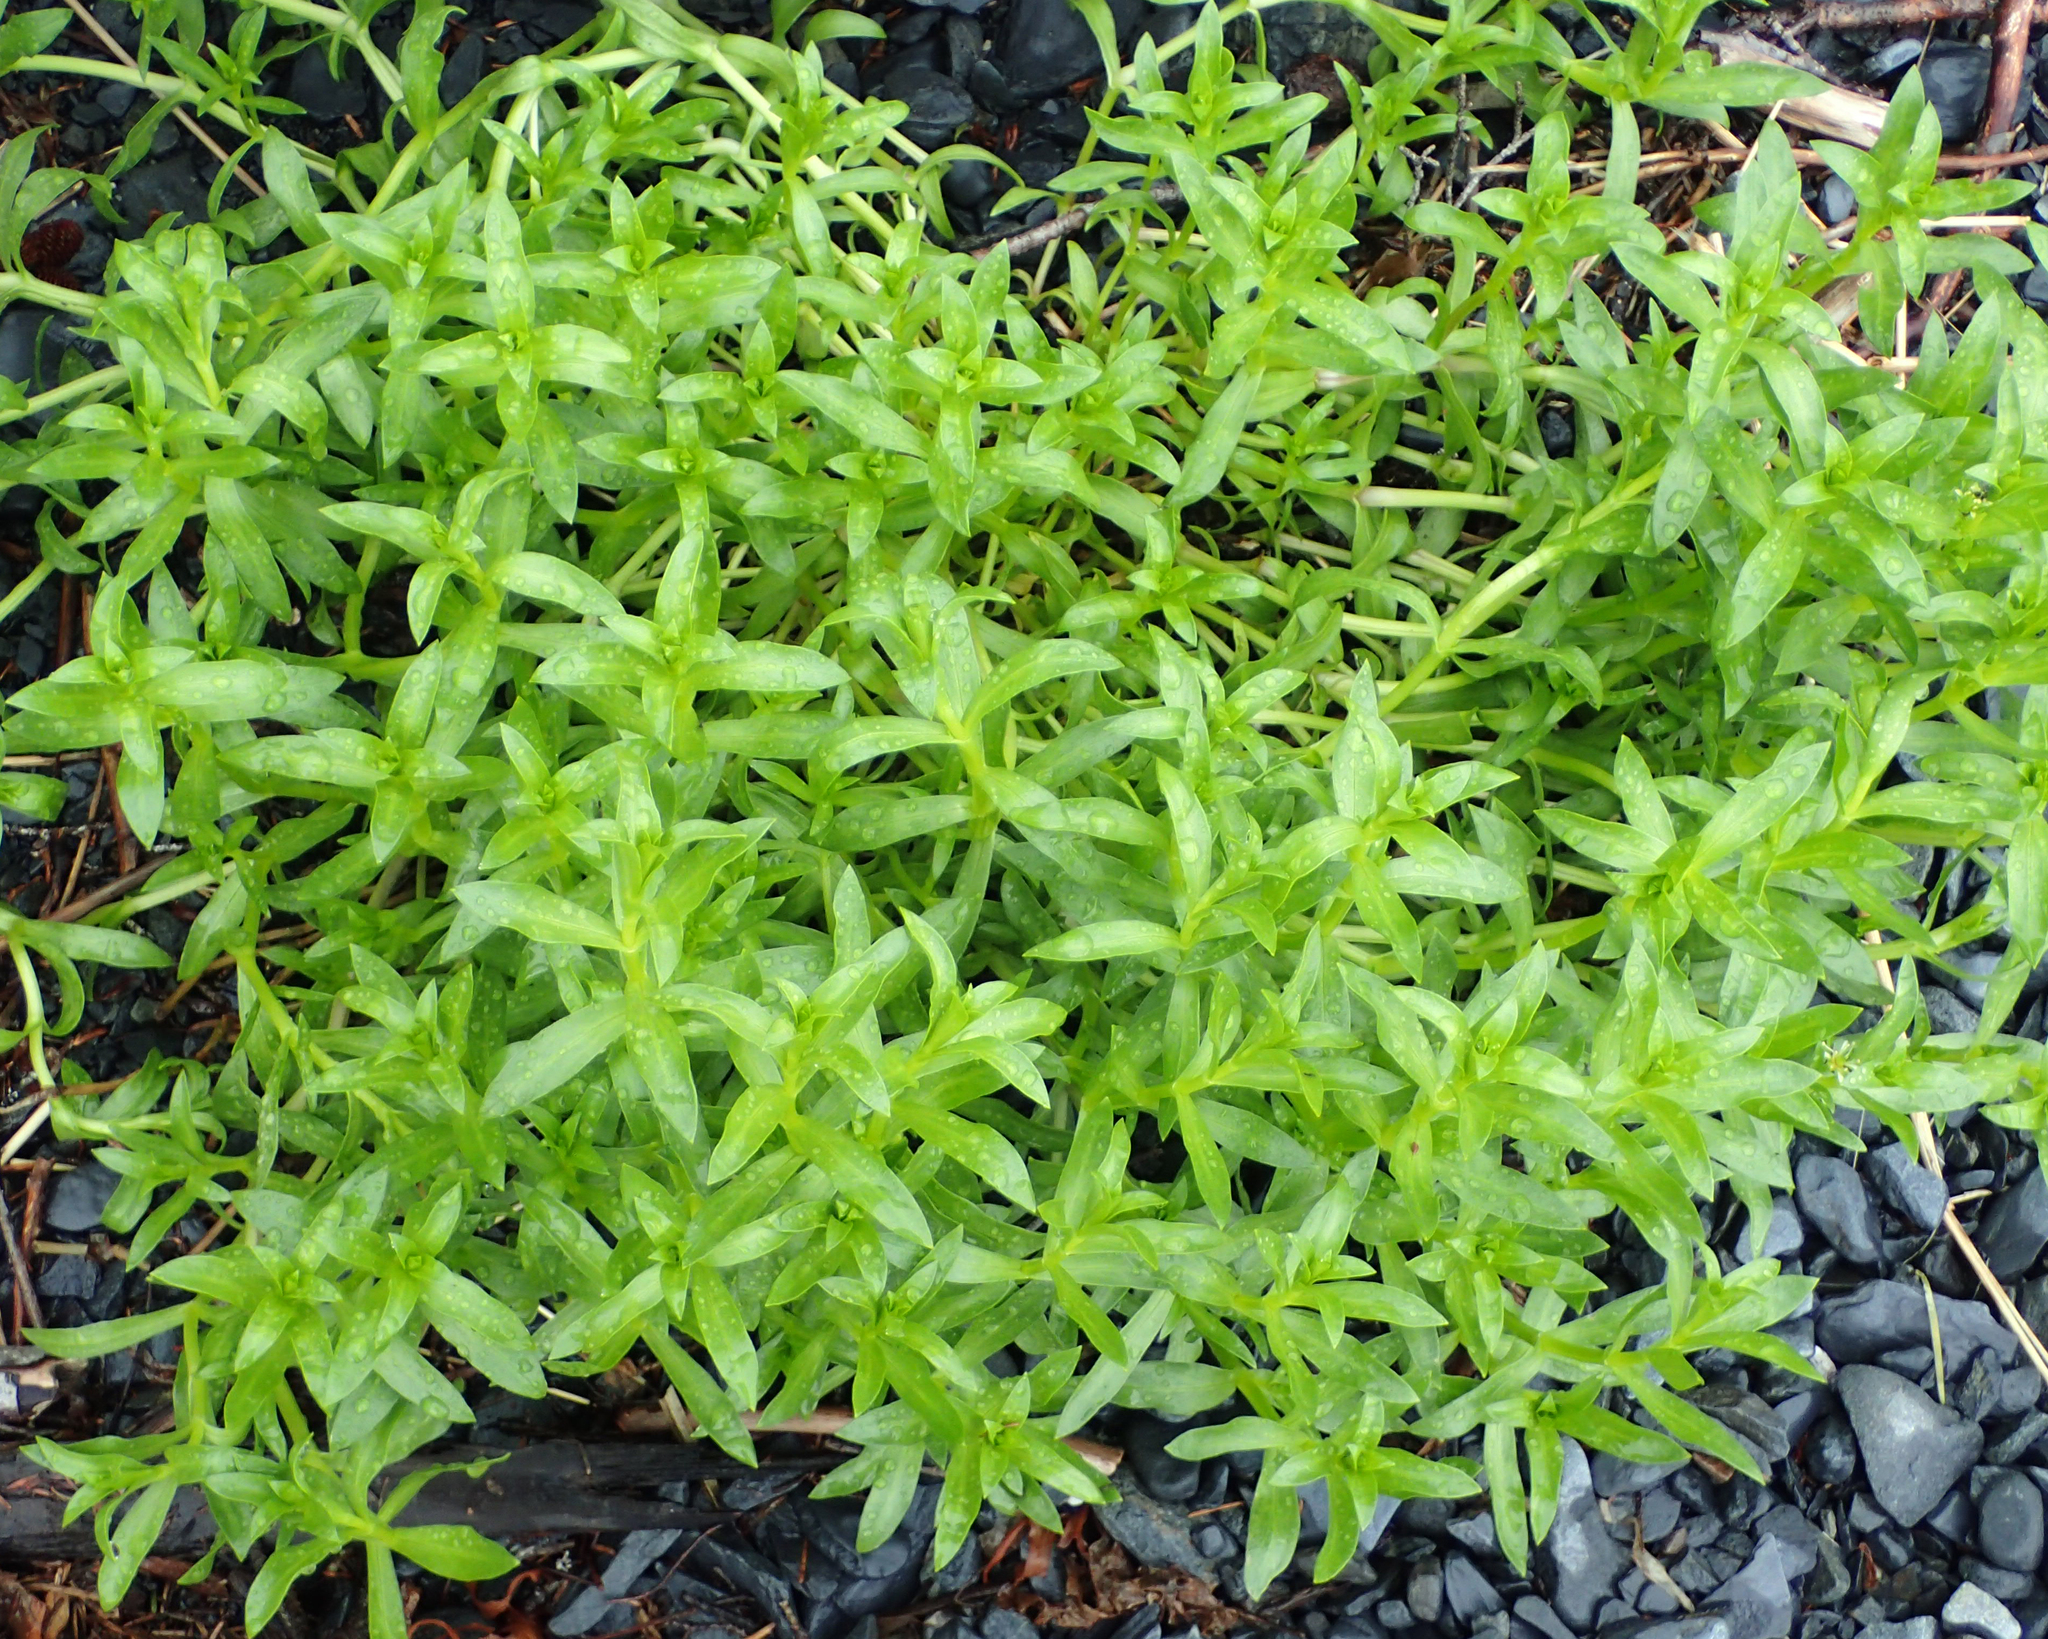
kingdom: Plantae
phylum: Tracheophyta
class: Magnoliopsida
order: Caryophyllales
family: Caryophyllaceae
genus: Honckenya
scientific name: Honckenya peploides
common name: Sea sandwort
